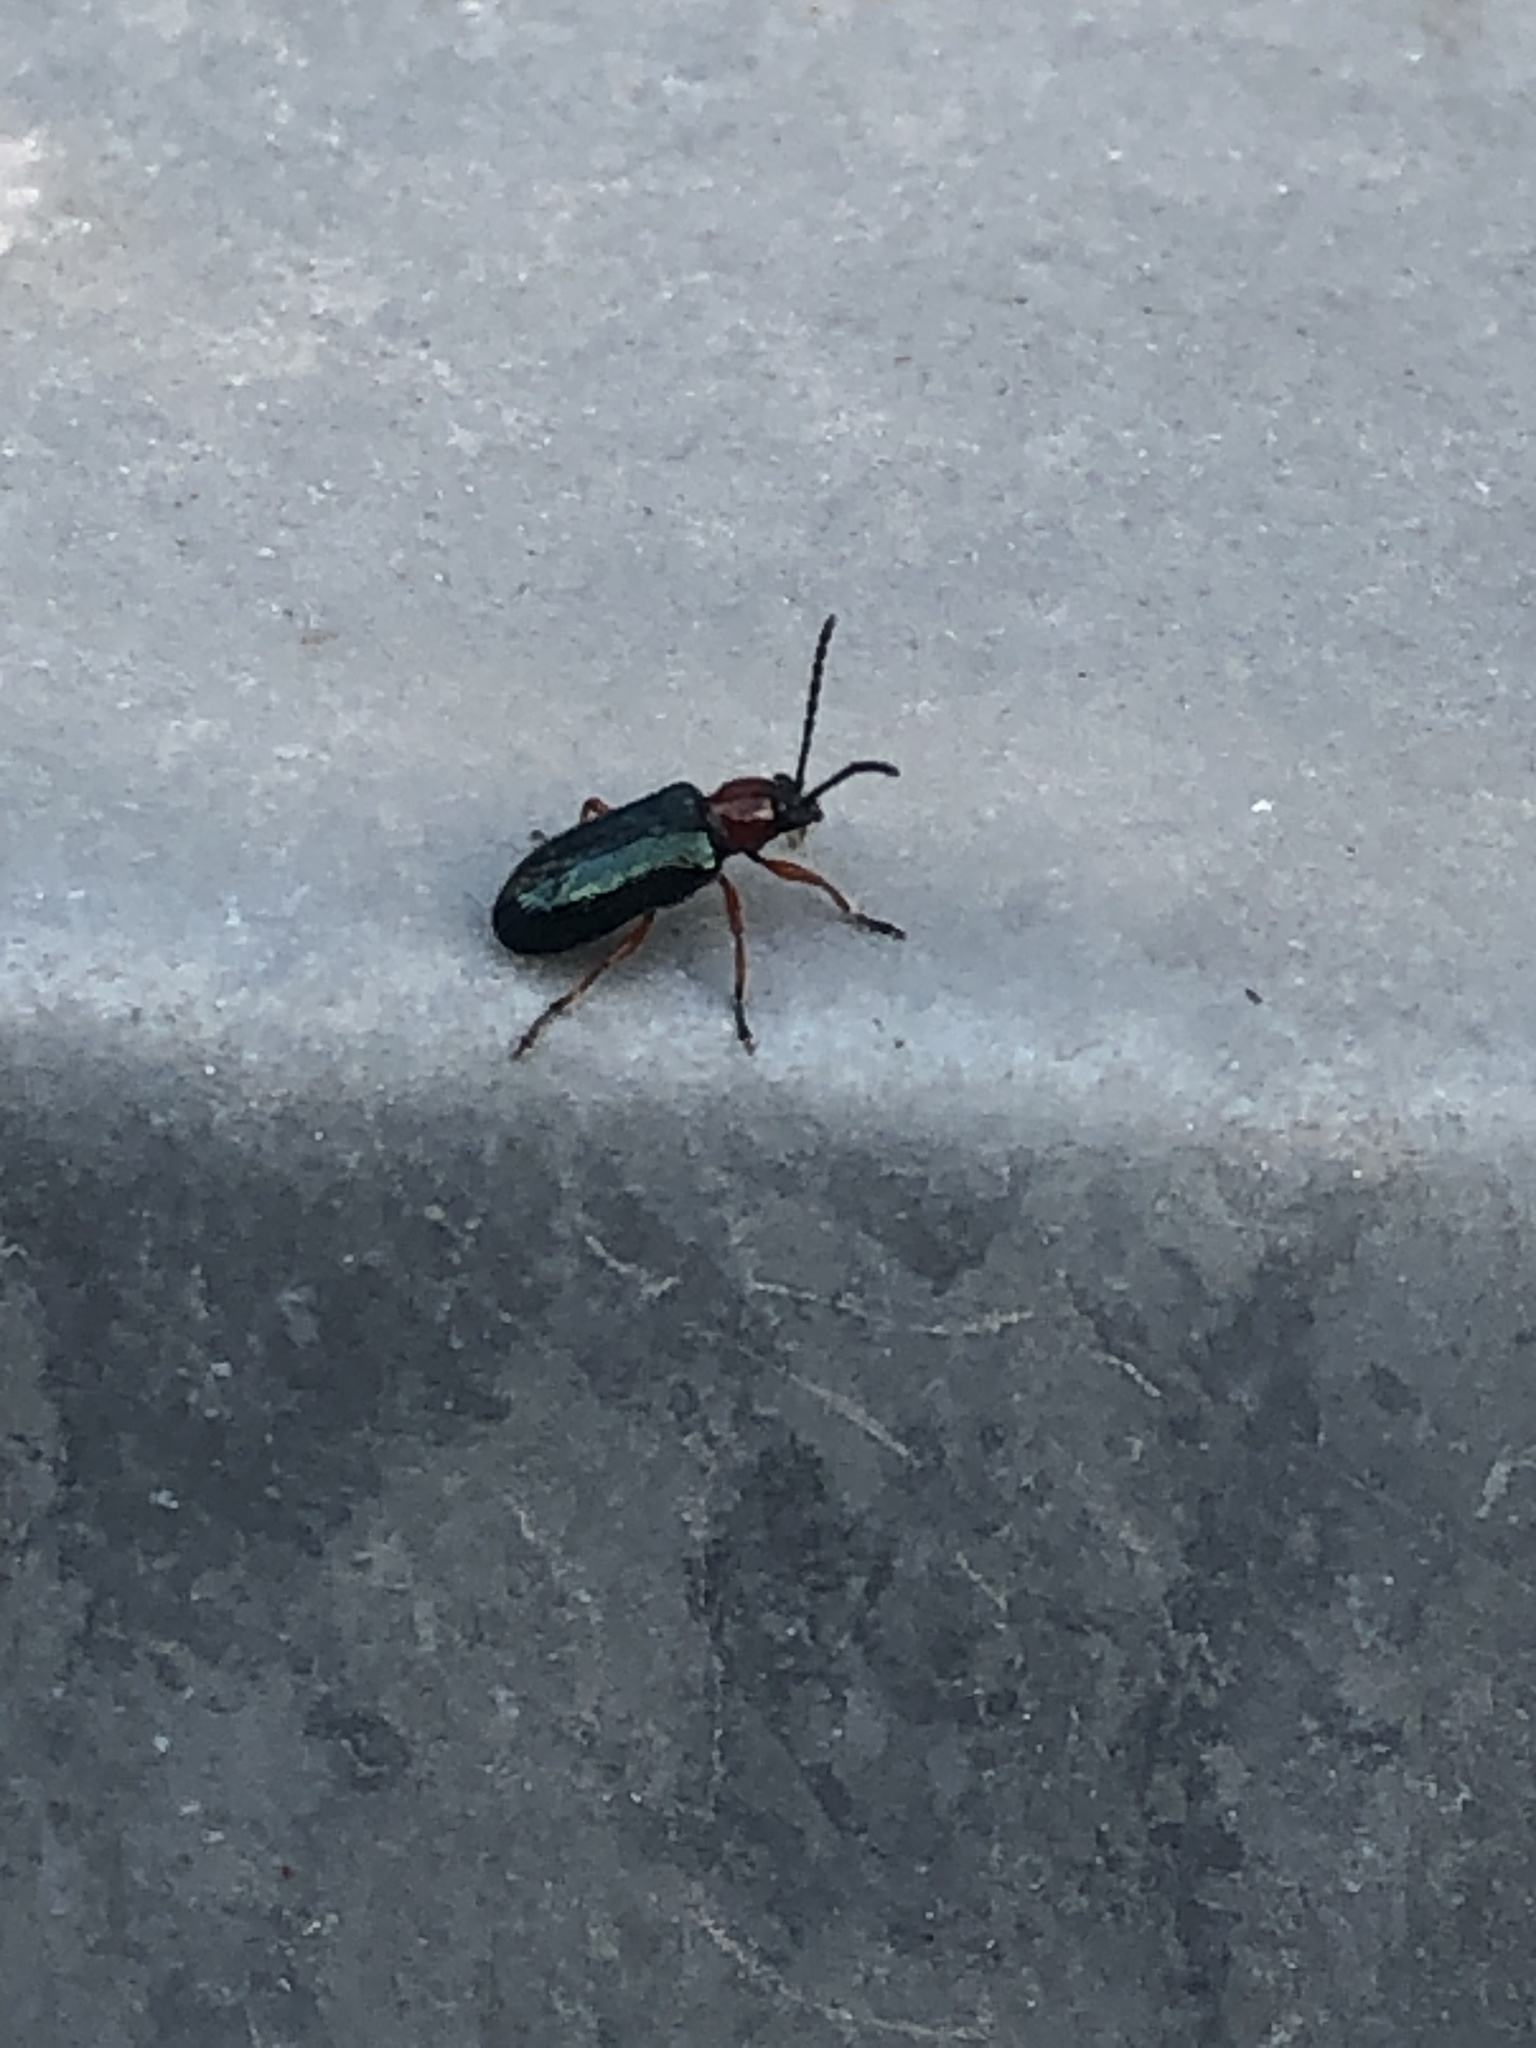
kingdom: Animalia
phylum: Arthropoda
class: Insecta
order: Coleoptera
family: Chrysomelidae
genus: Oulema
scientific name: Oulema
